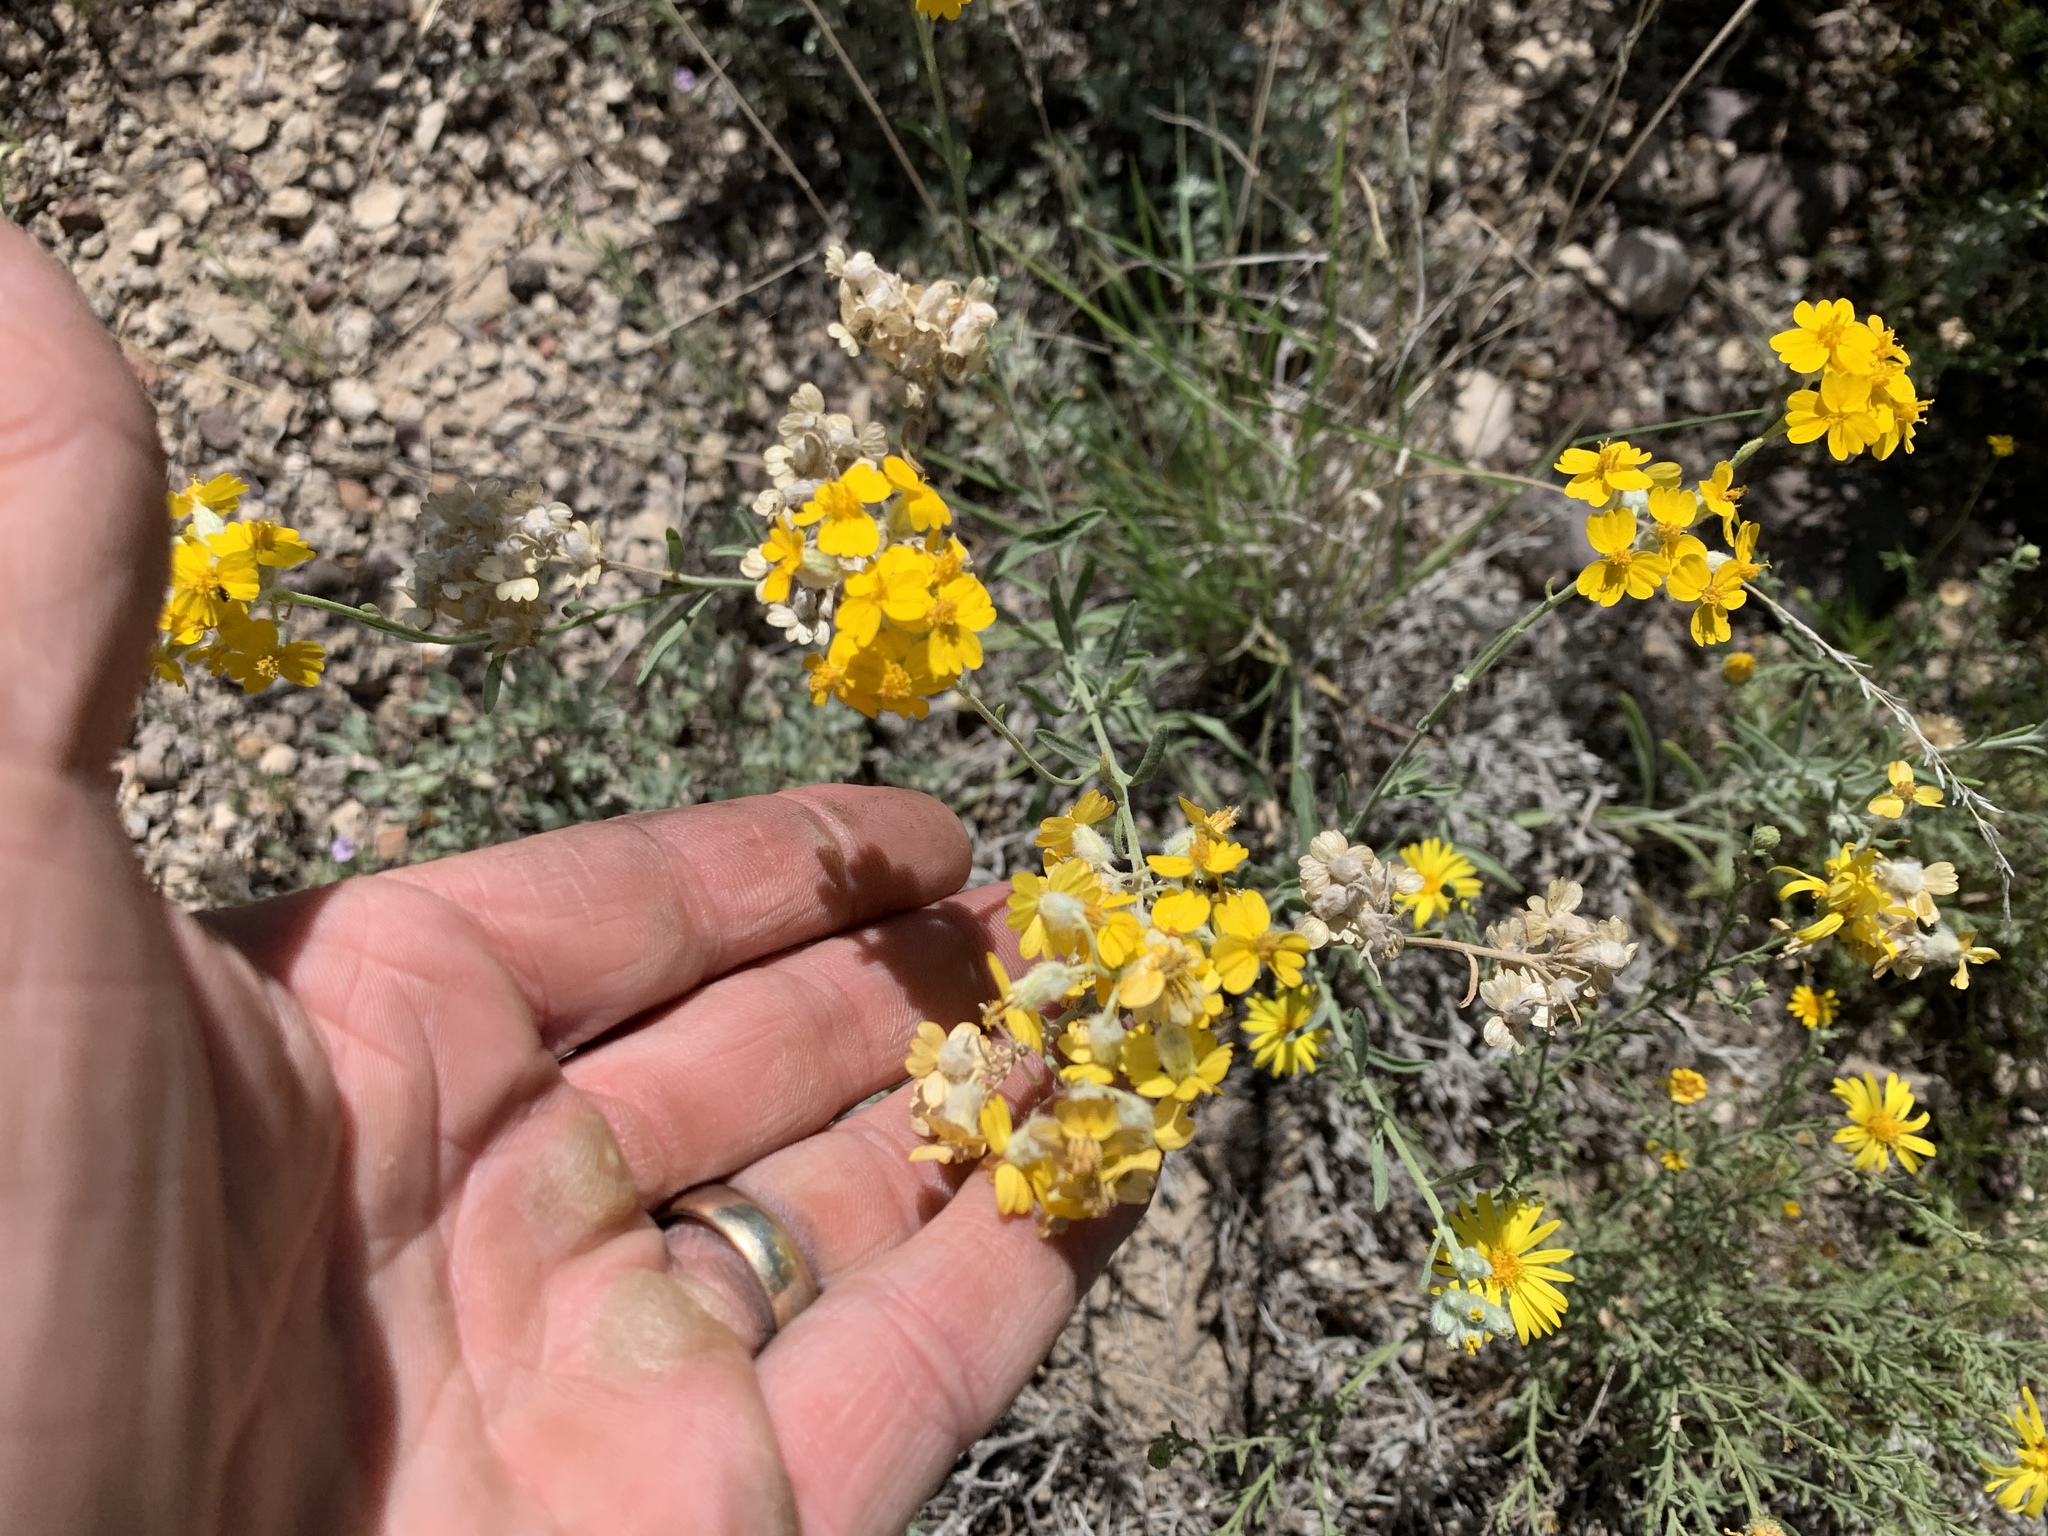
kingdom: Plantae
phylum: Tracheophyta
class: Magnoliopsida
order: Asterales
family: Asteraceae
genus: Psilostrophe
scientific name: Psilostrophe tagetina
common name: Marigold paper-flower
